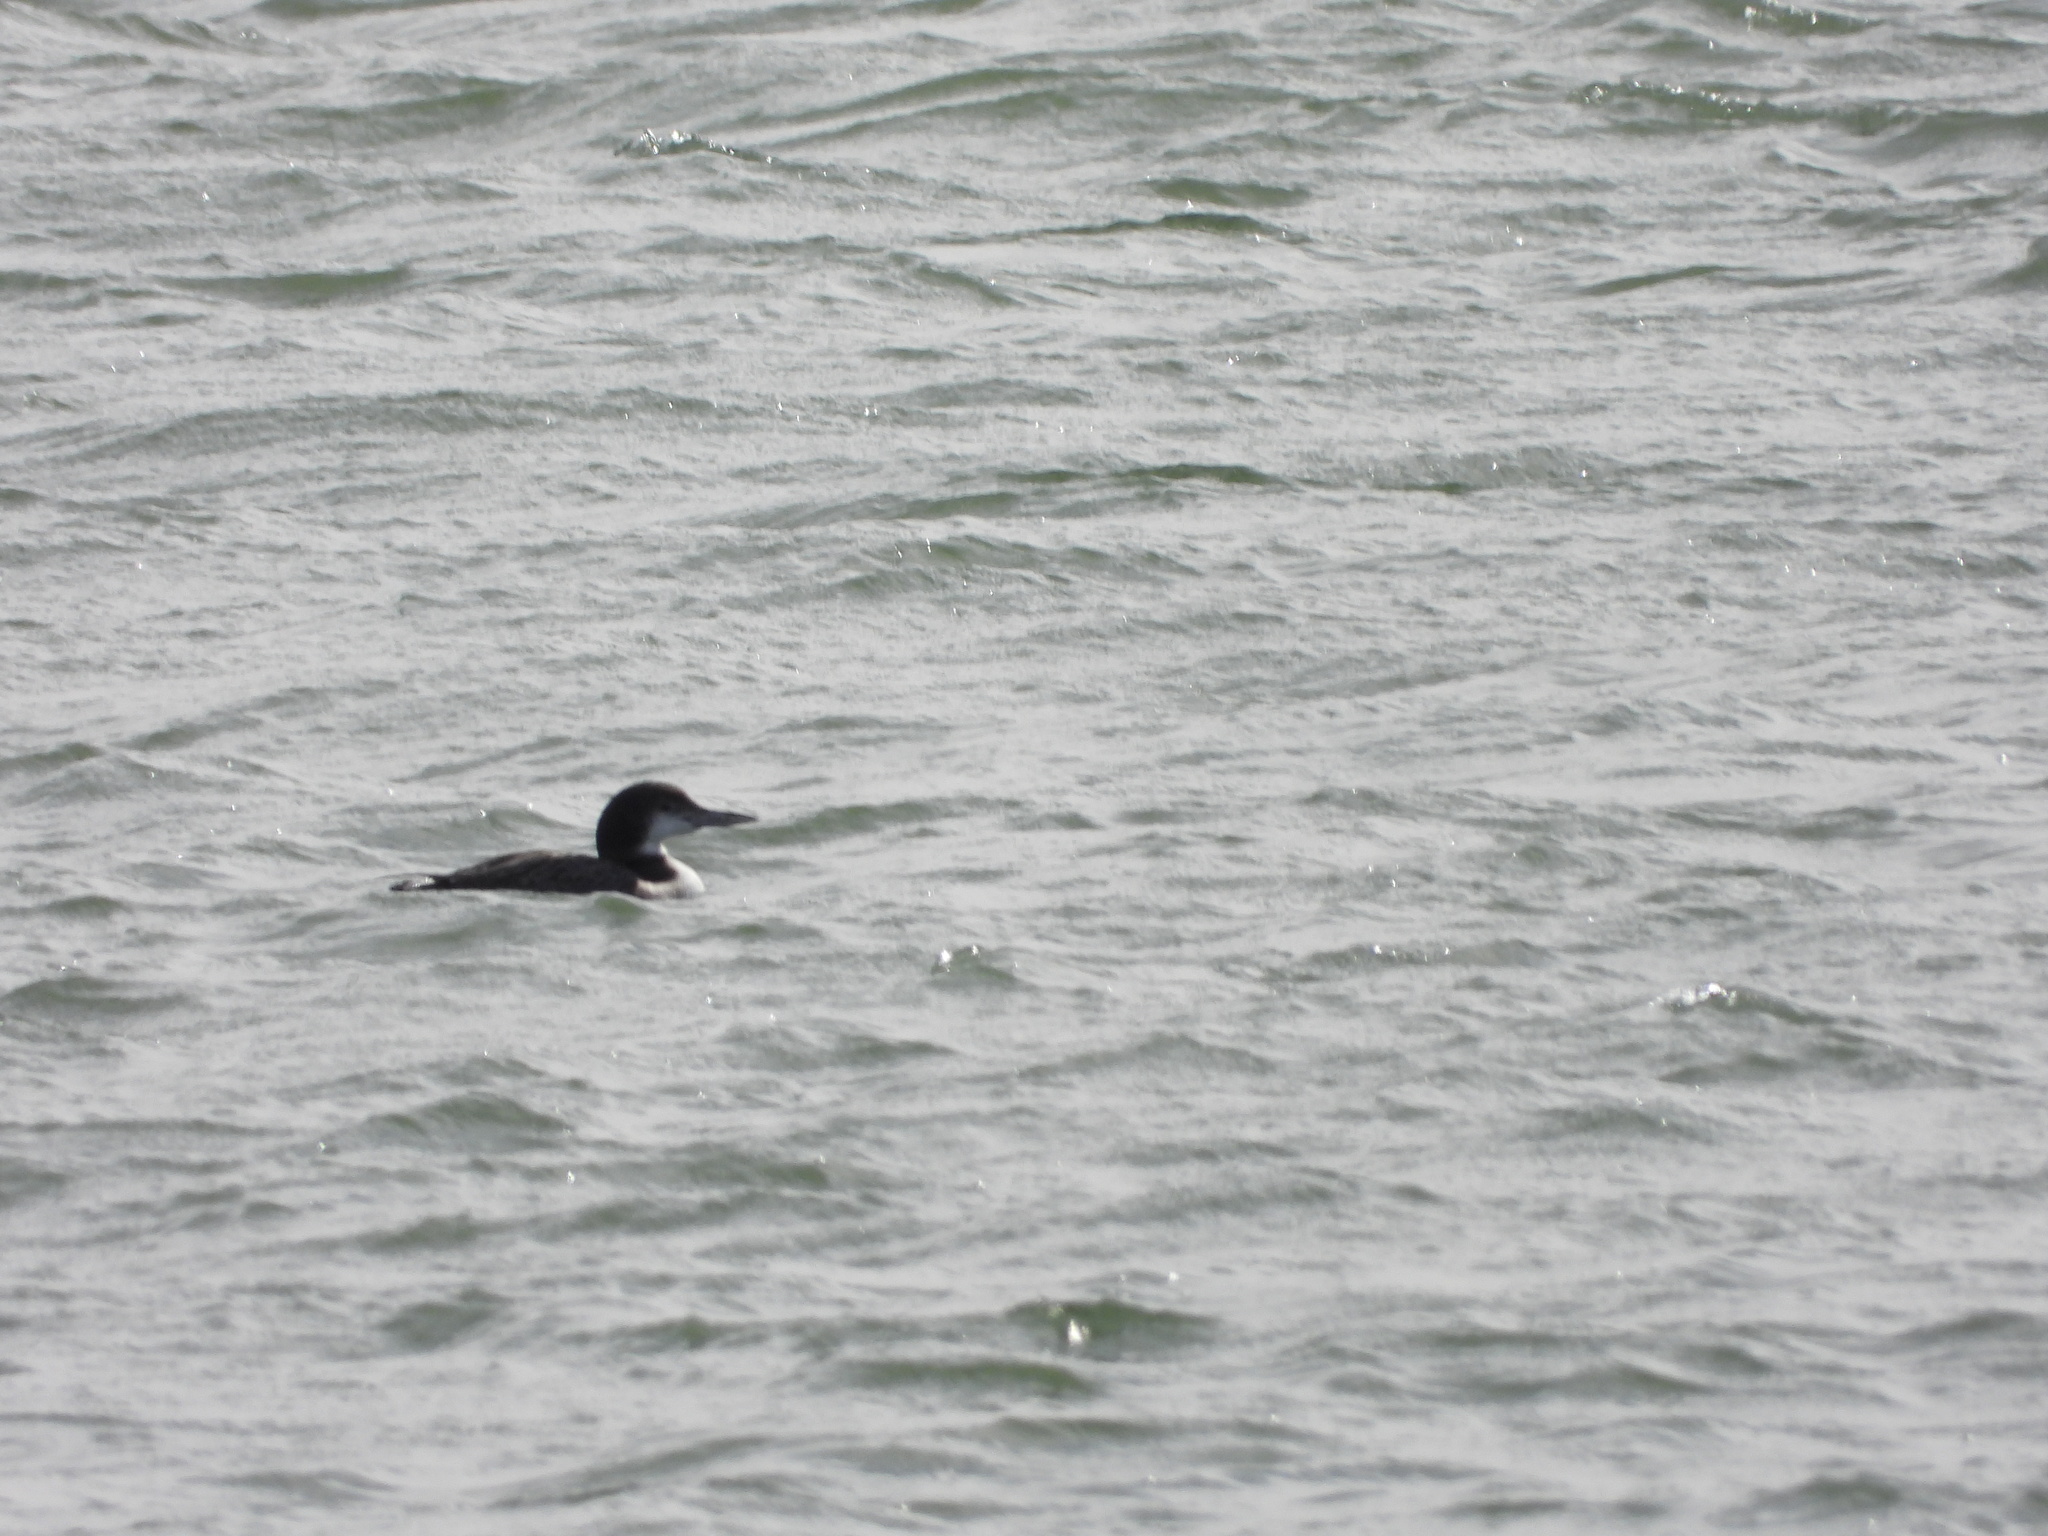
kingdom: Animalia
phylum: Chordata
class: Aves
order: Gaviiformes
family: Gaviidae
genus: Gavia
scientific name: Gavia immer
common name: Common loon
